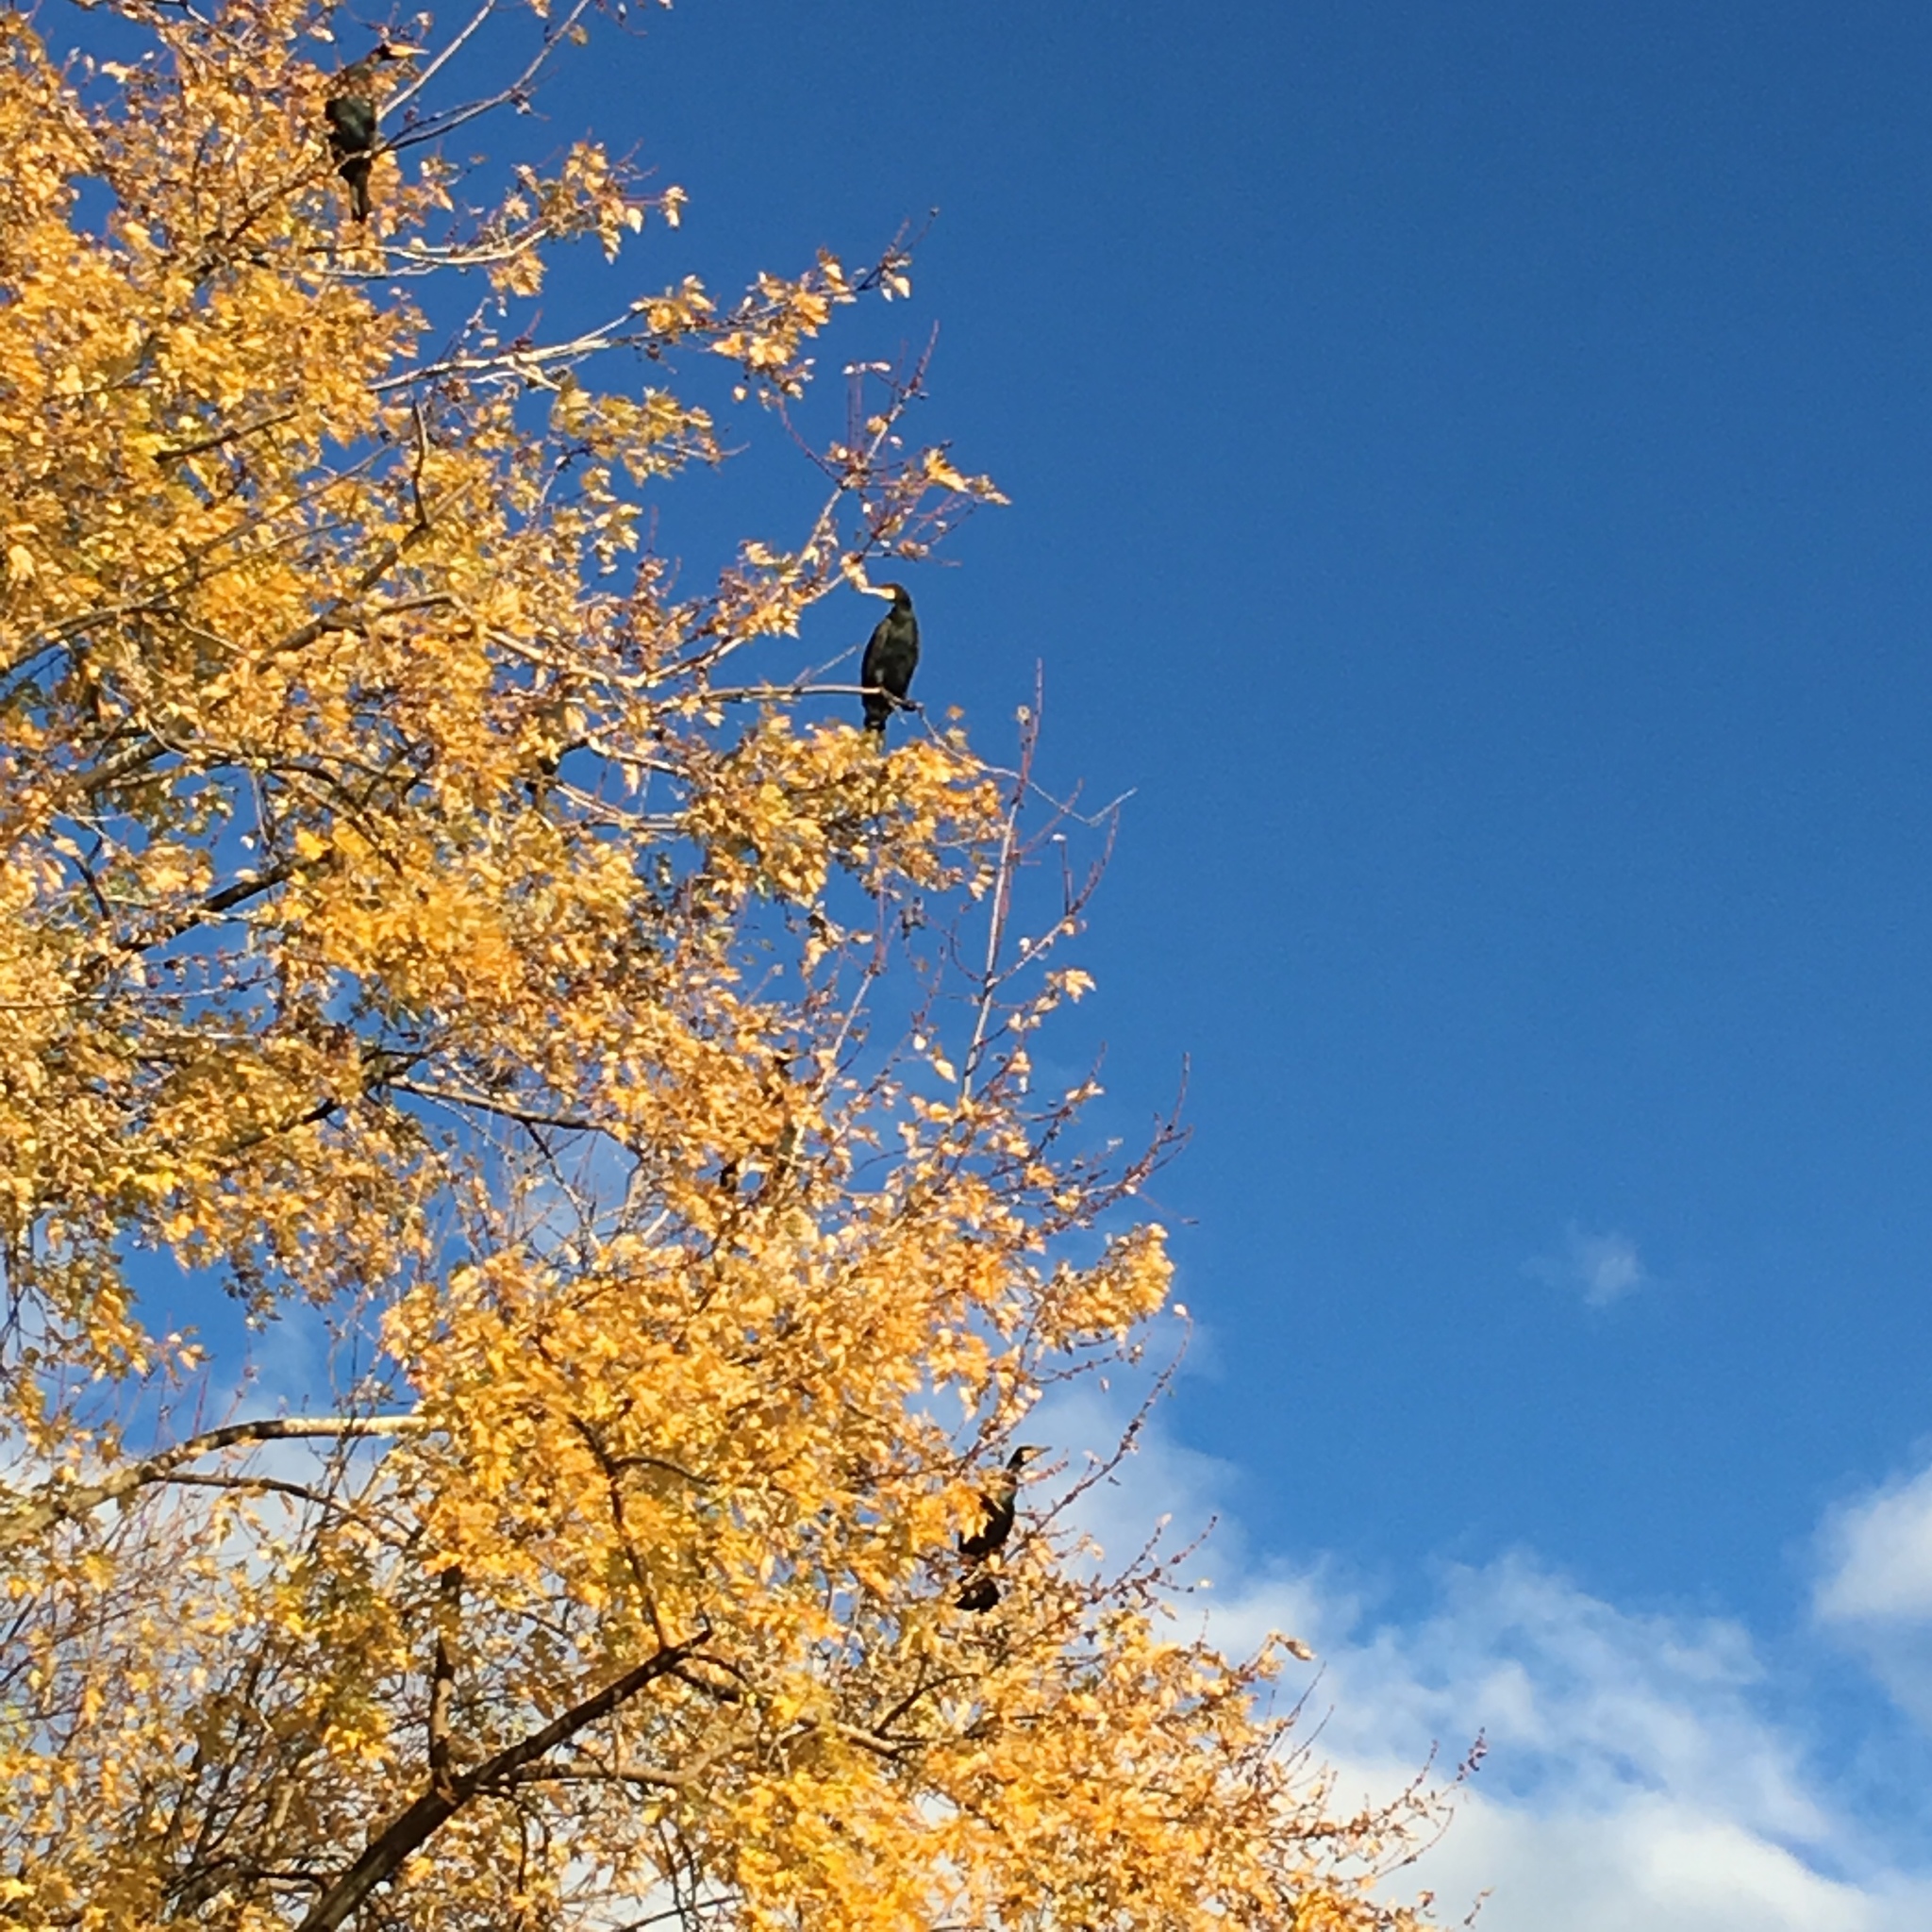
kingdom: Animalia
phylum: Chordata
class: Aves
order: Suliformes
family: Phalacrocoracidae
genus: Phalacrocorax
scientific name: Phalacrocorax carbo
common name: Great cormorant
